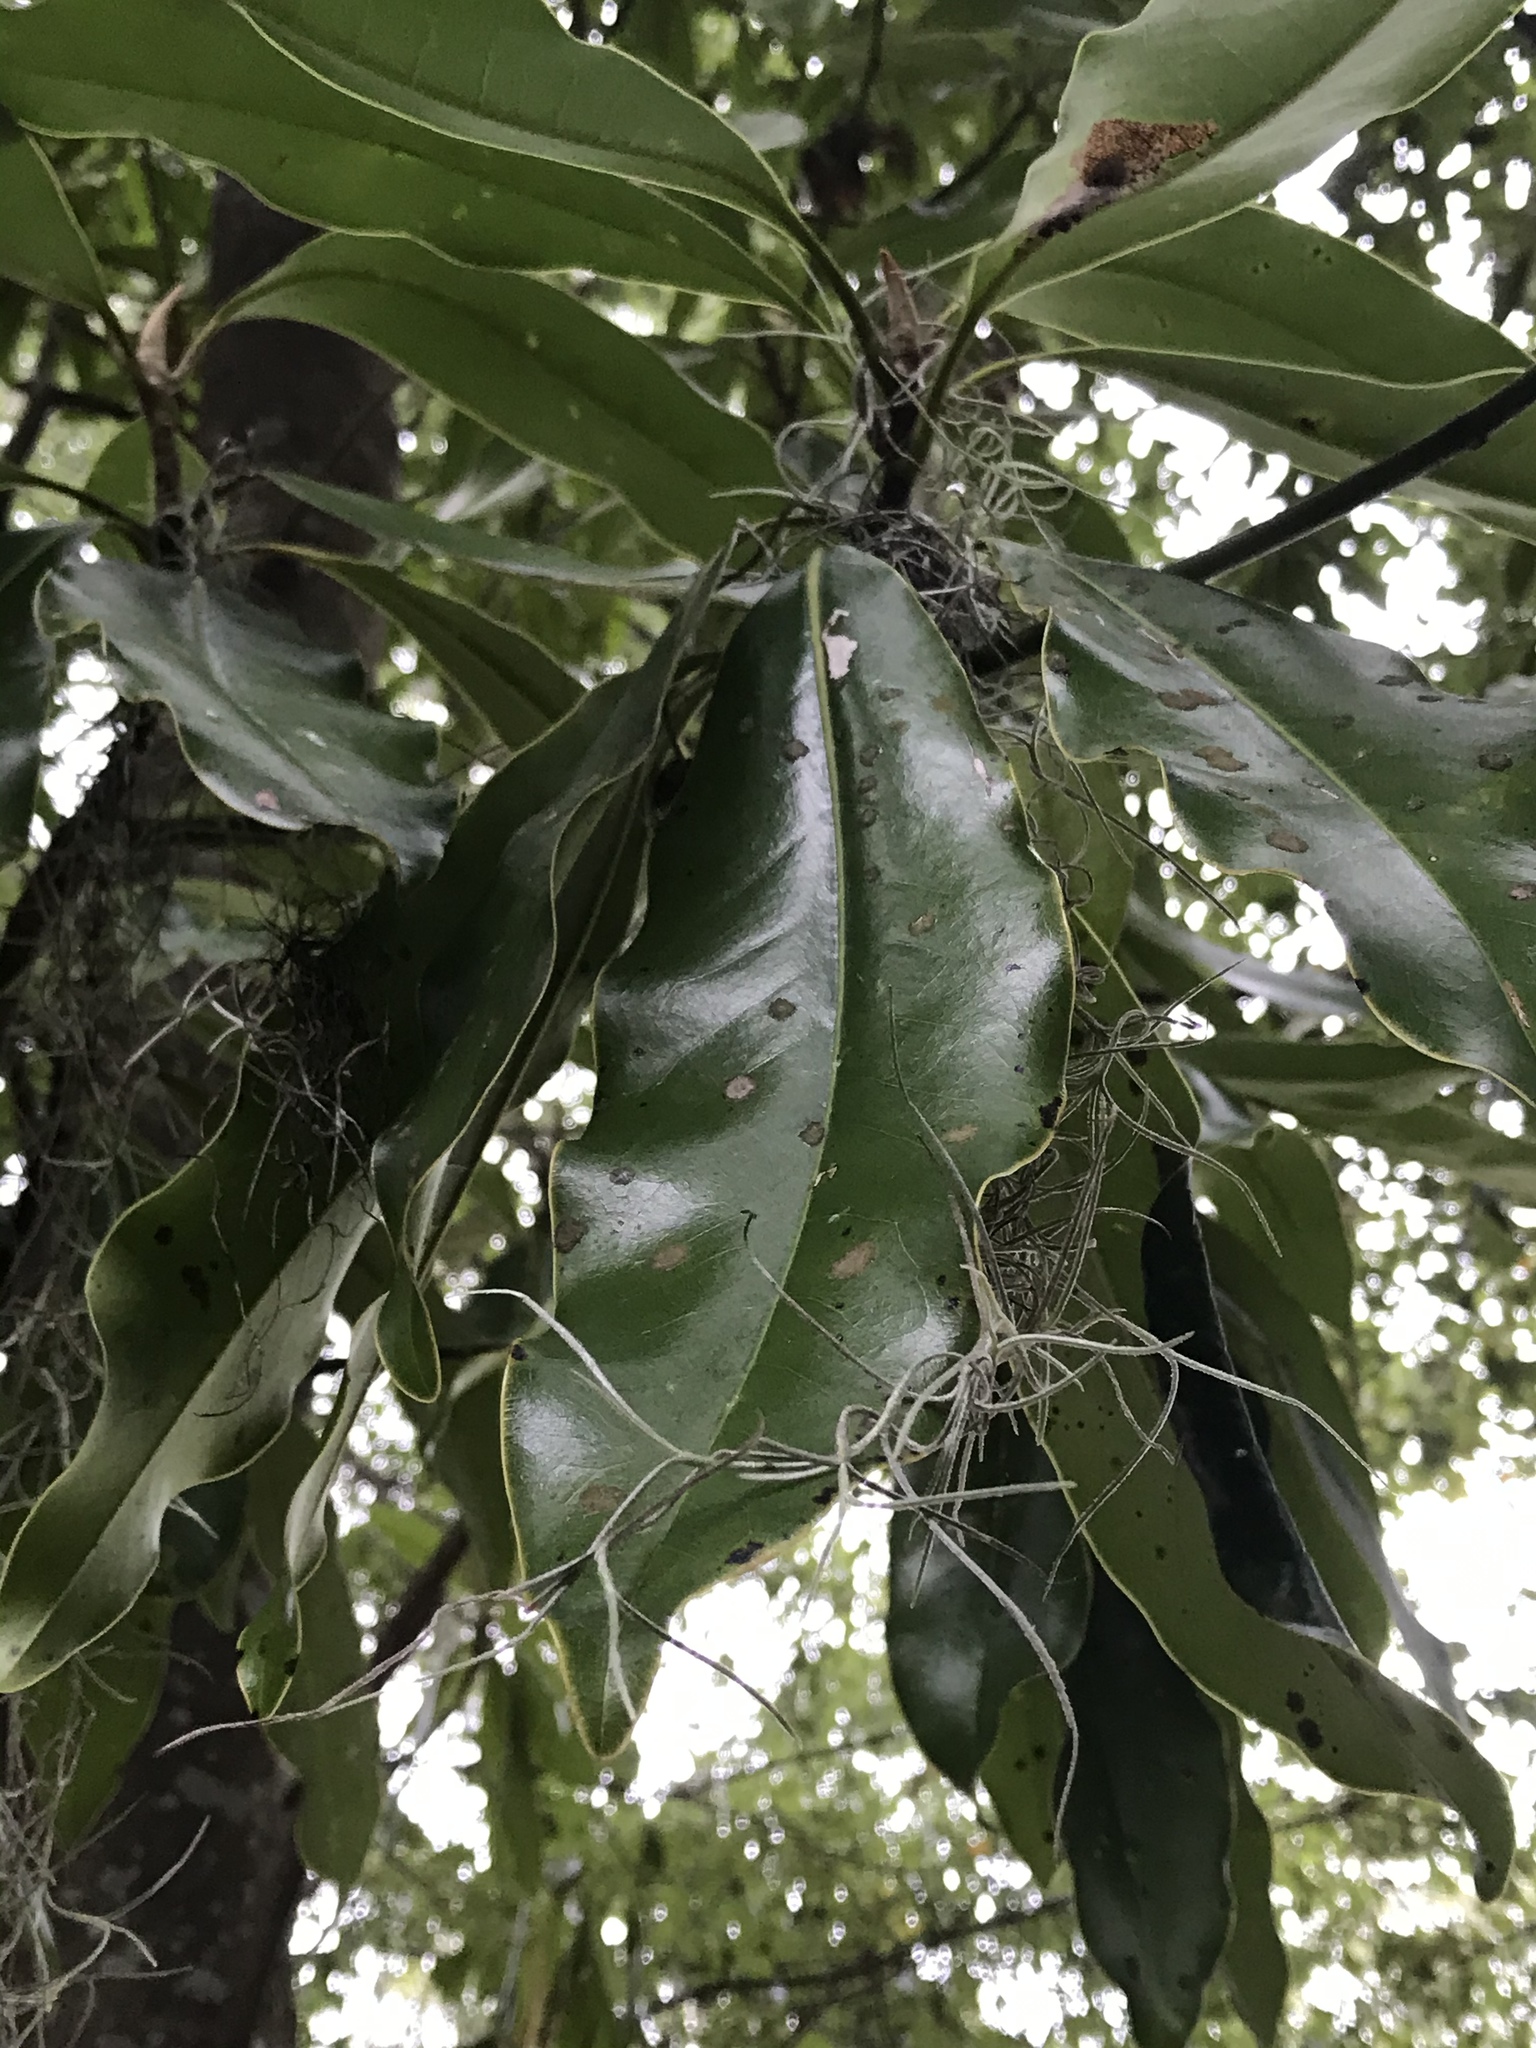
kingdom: Plantae
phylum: Tracheophyta
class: Magnoliopsida
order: Magnoliales
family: Magnoliaceae
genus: Magnolia
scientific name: Magnolia grandiflora
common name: Southern magnolia
